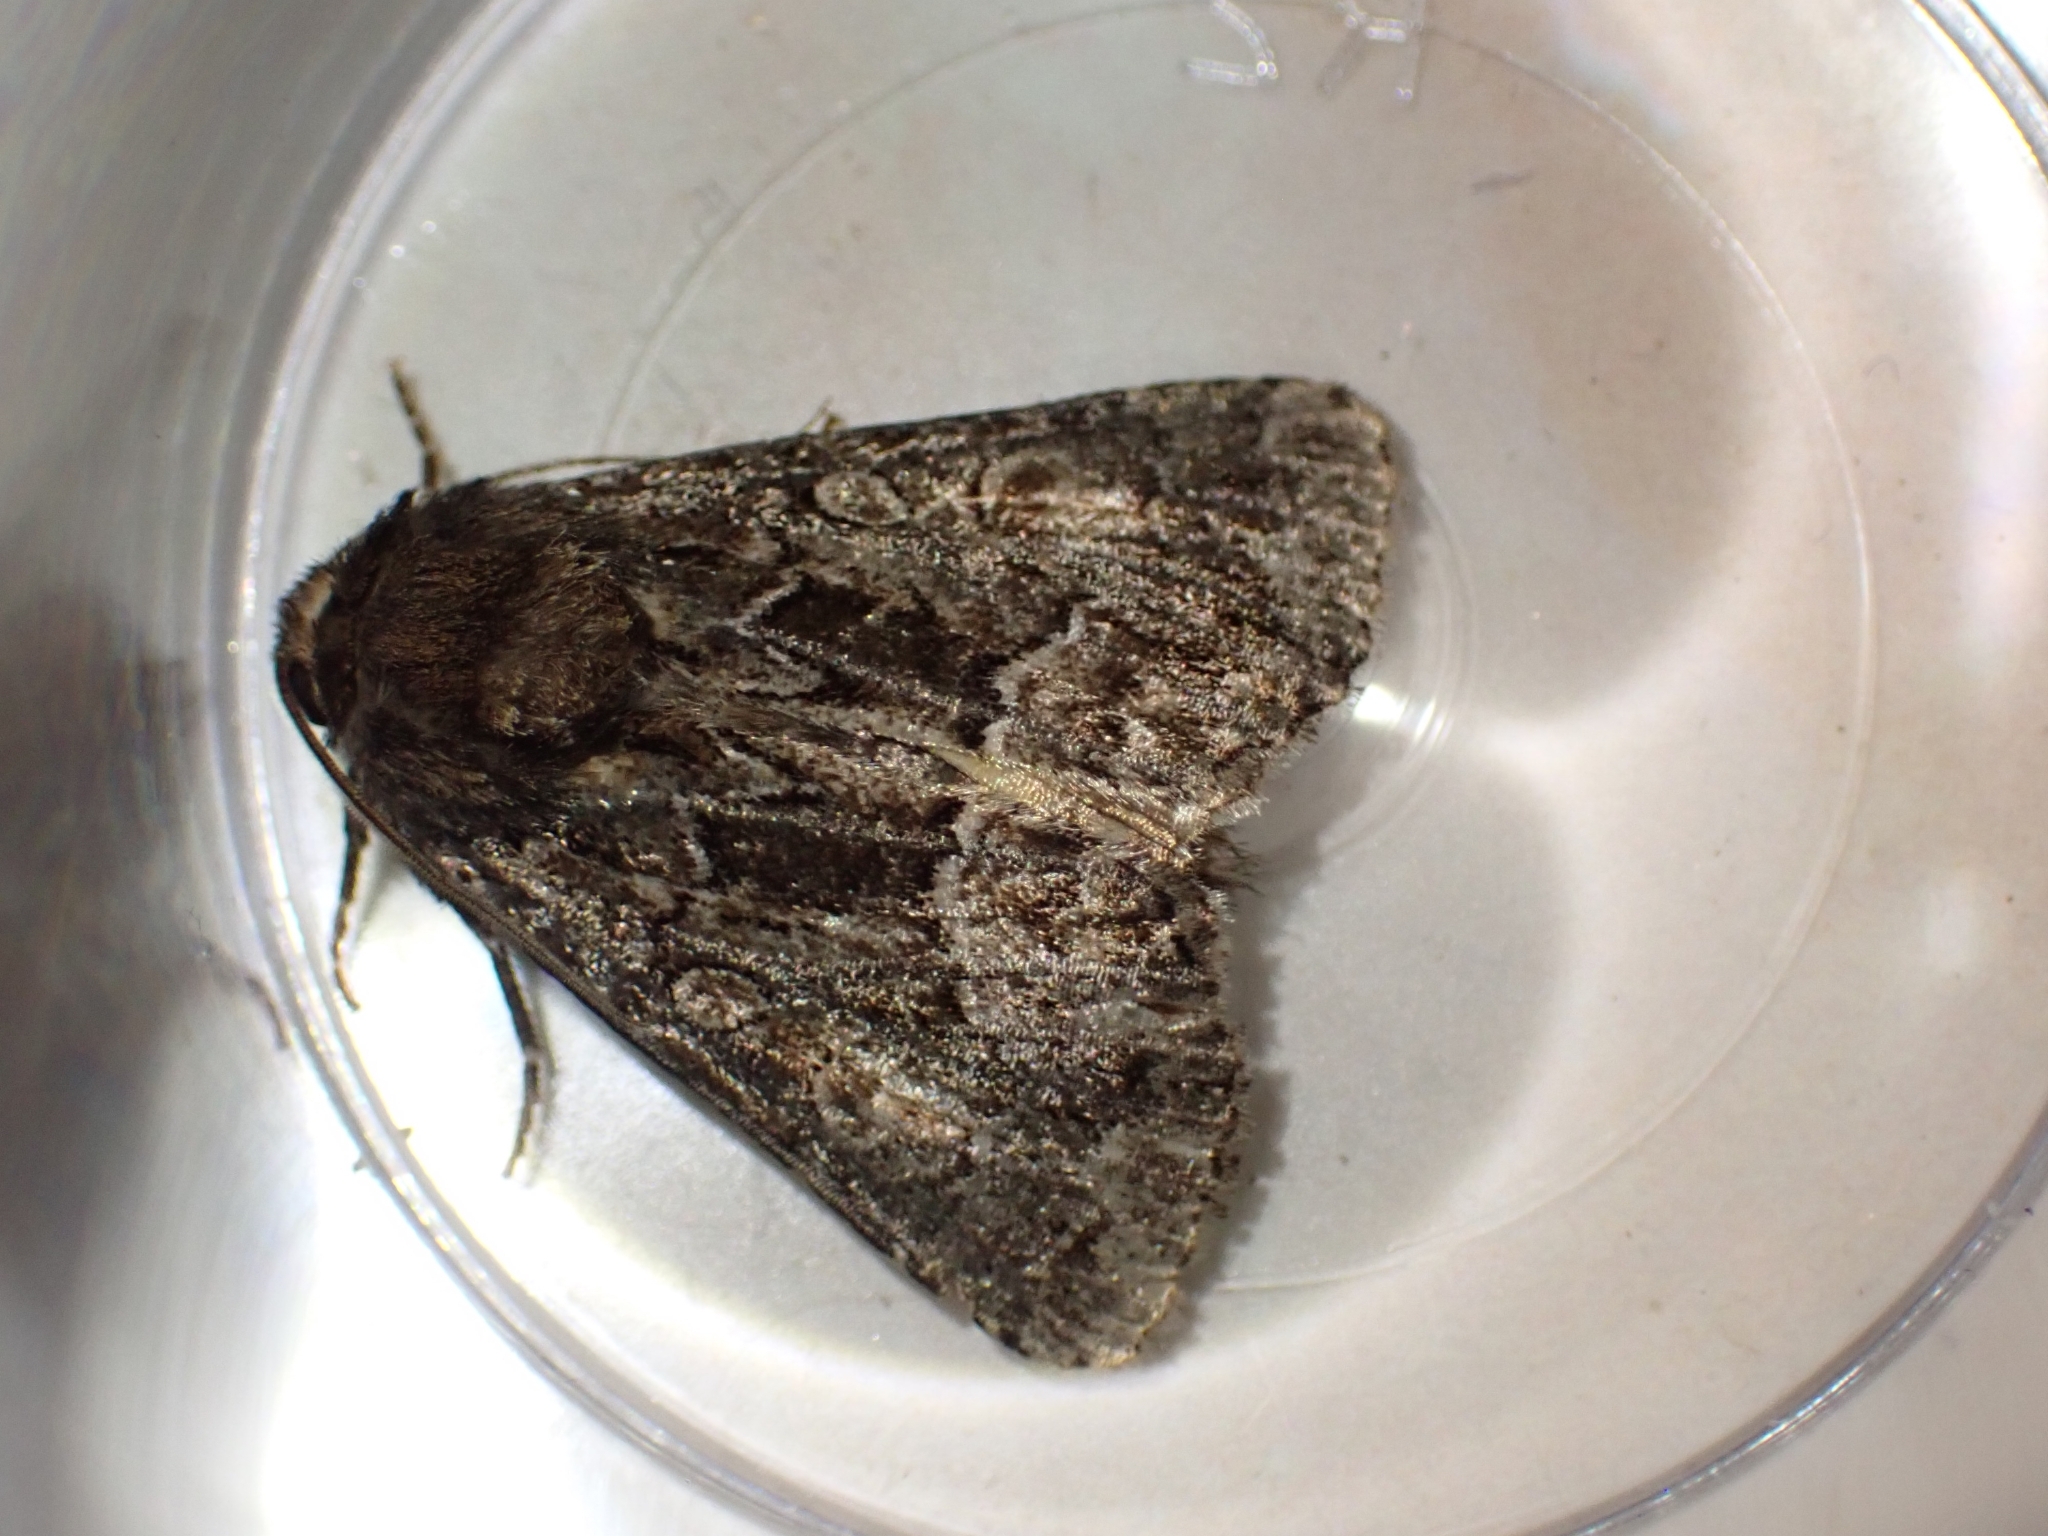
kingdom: Animalia
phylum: Arthropoda
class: Insecta
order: Lepidoptera
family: Noctuidae
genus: Thalpophila
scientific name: Thalpophila matura
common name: Straw underwing
